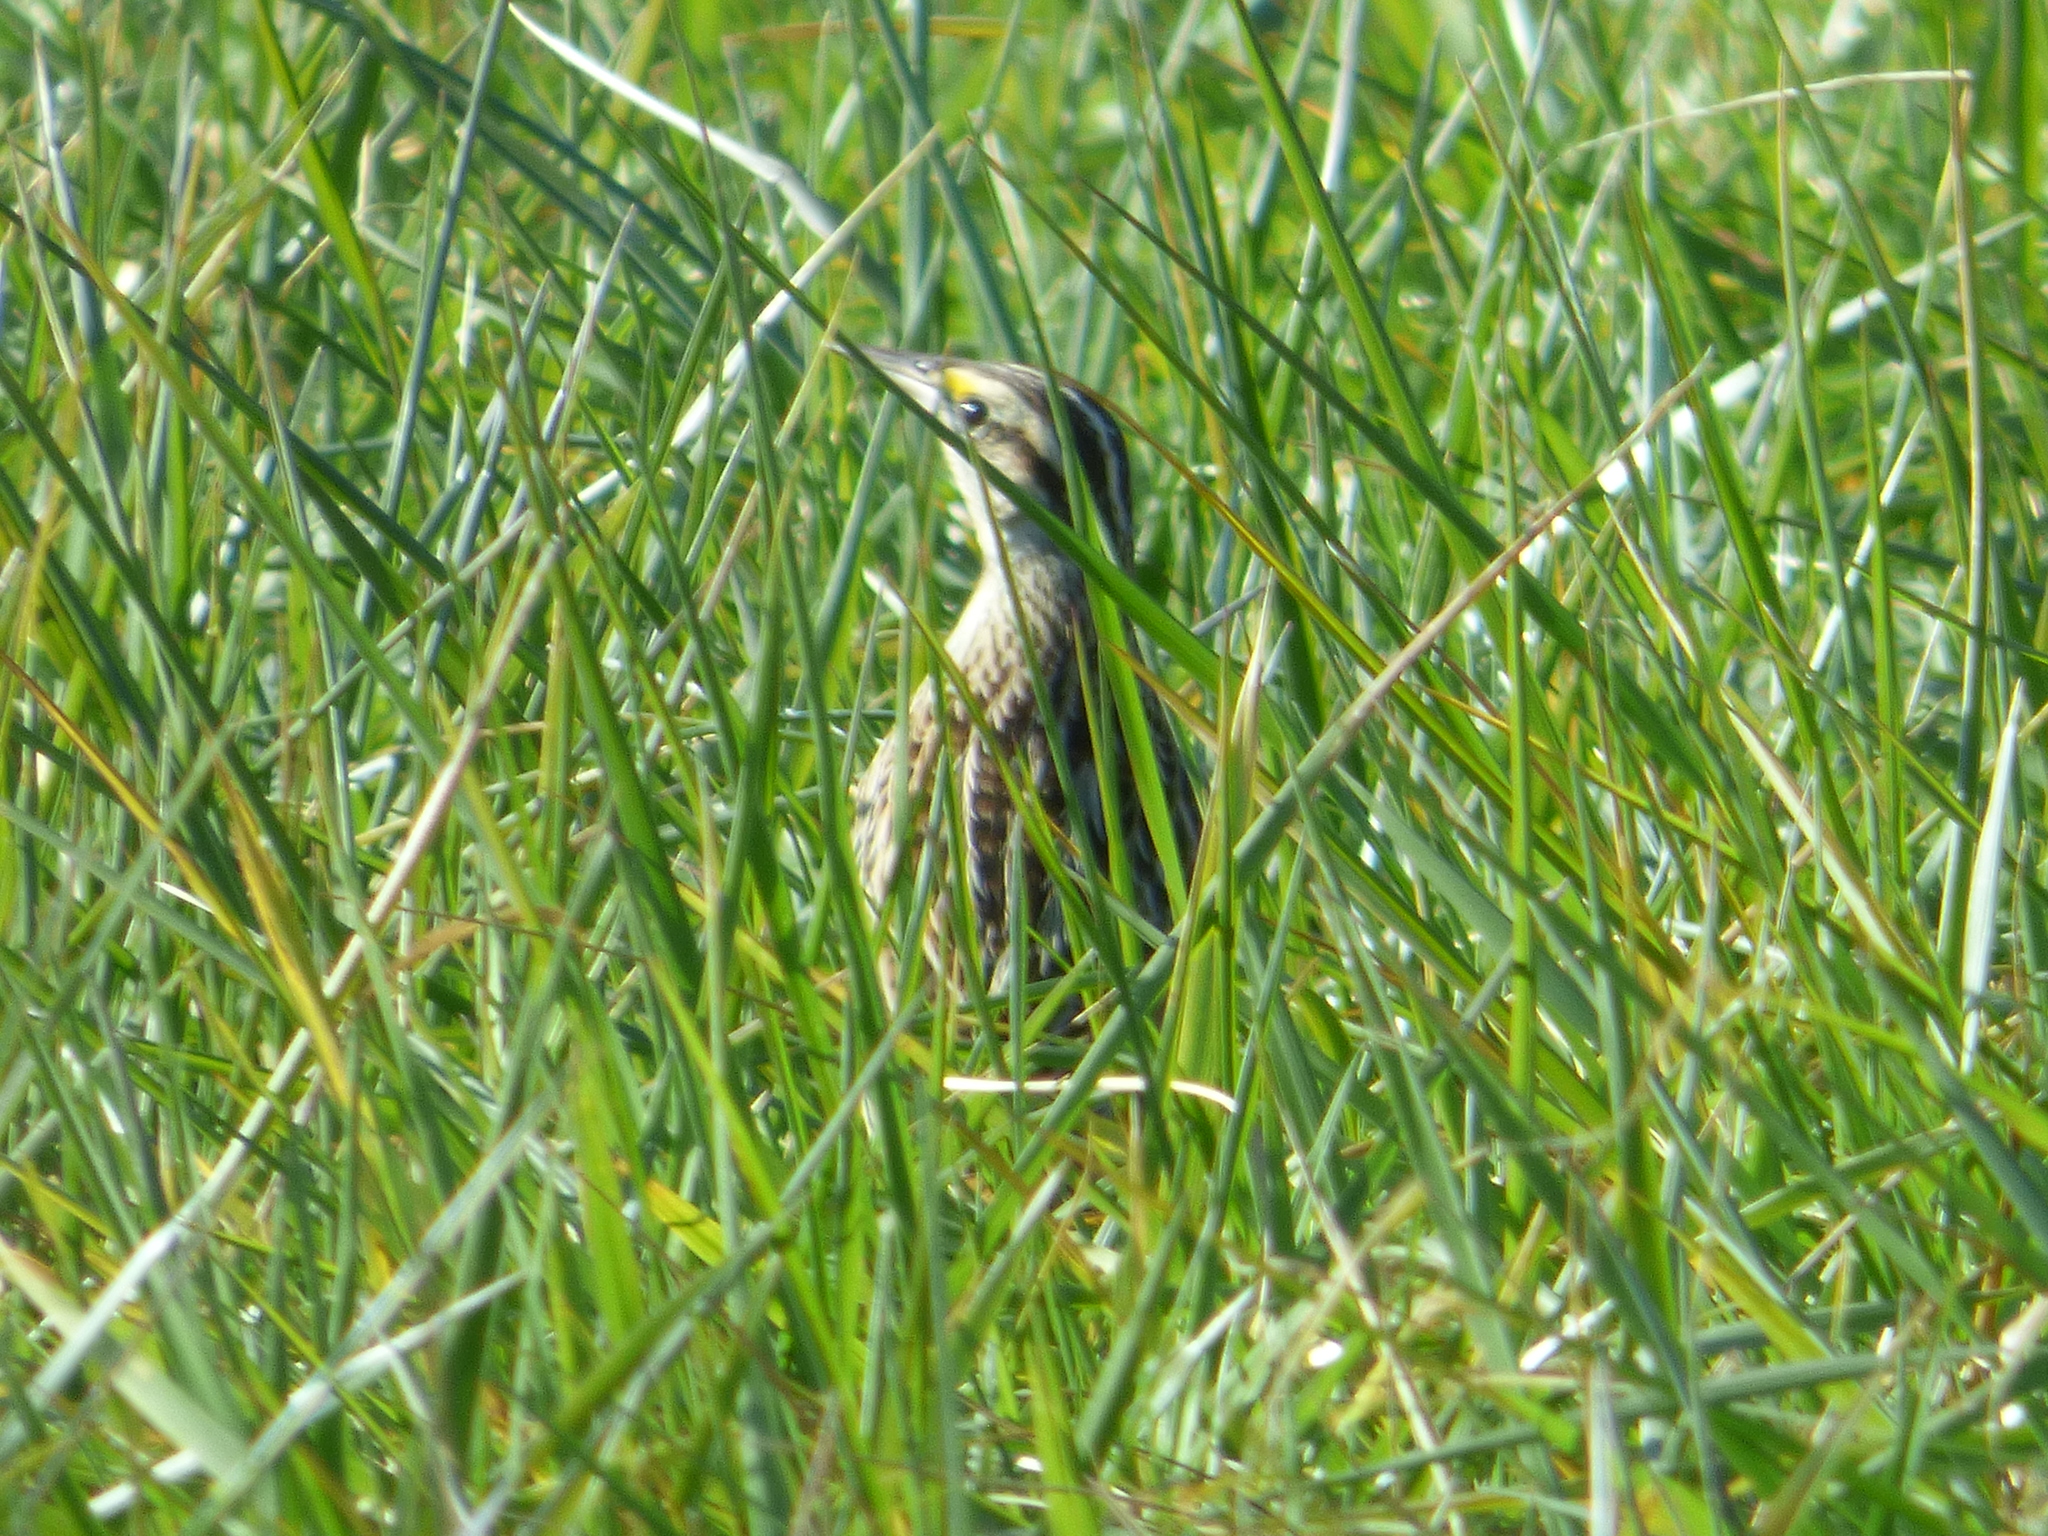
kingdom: Animalia
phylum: Chordata
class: Aves
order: Passeriformes
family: Icteridae
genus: Sturnella
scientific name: Sturnella magna
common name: Eastern meadowlark
